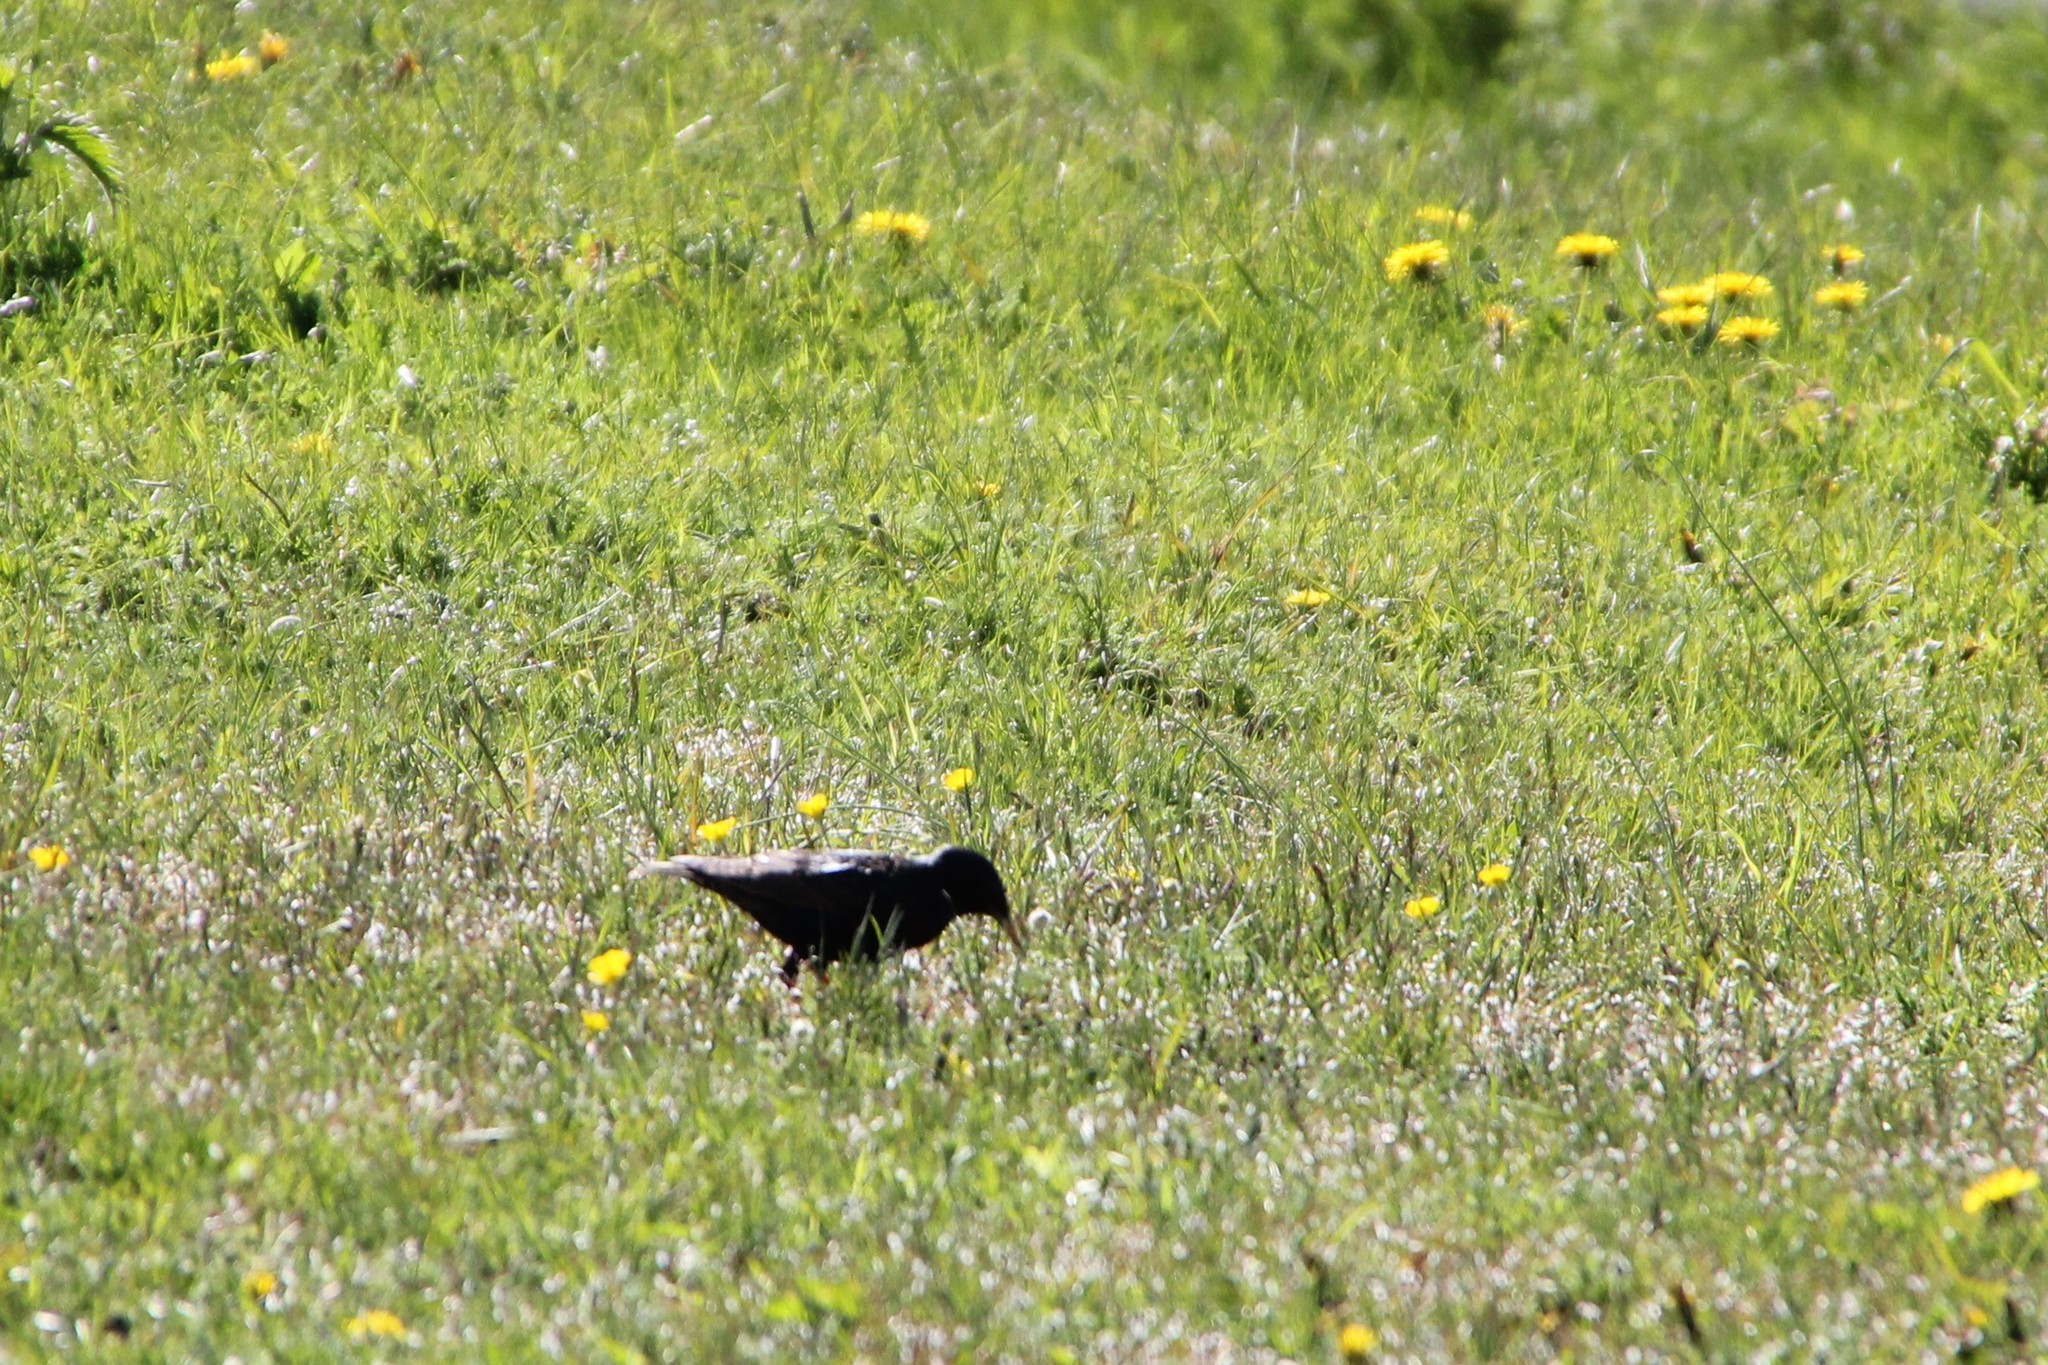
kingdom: Animalia
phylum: Chordata
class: Aves
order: Passeriformes
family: Sturnidae
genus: Sturnus
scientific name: Sturnus vulgaris
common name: Common starling
